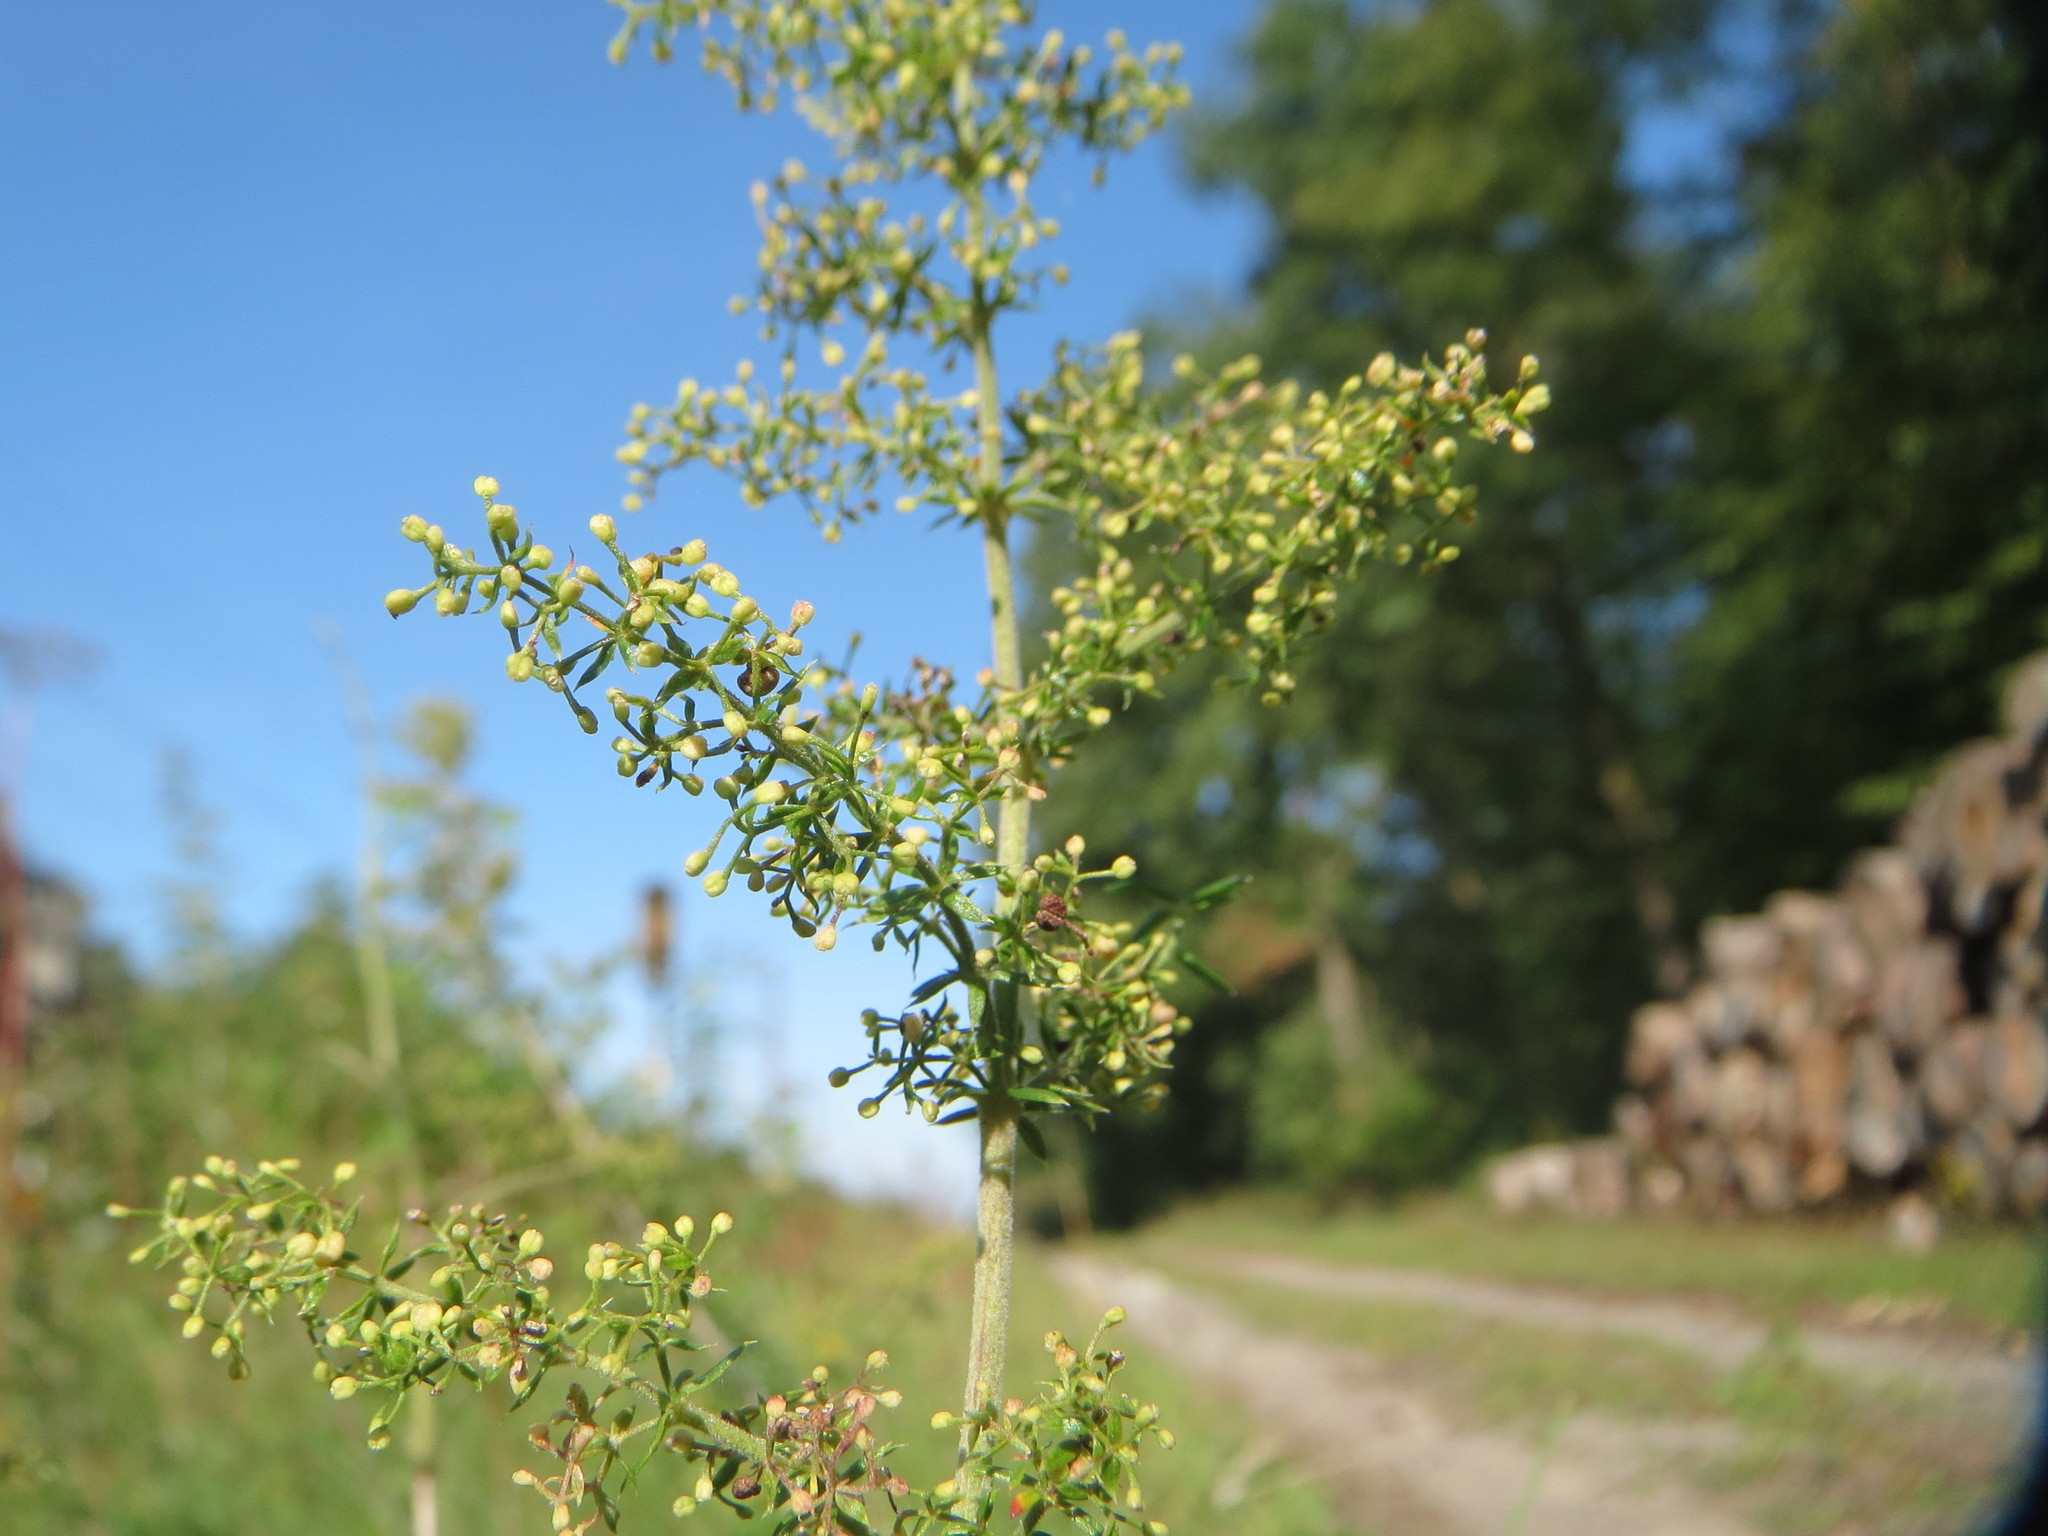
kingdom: Plantae
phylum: Tracheophyta
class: Magnoliopsida
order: Gentianales
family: Rubiaceae
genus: Galium
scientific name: Galium verum
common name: Lady's bedstraw
